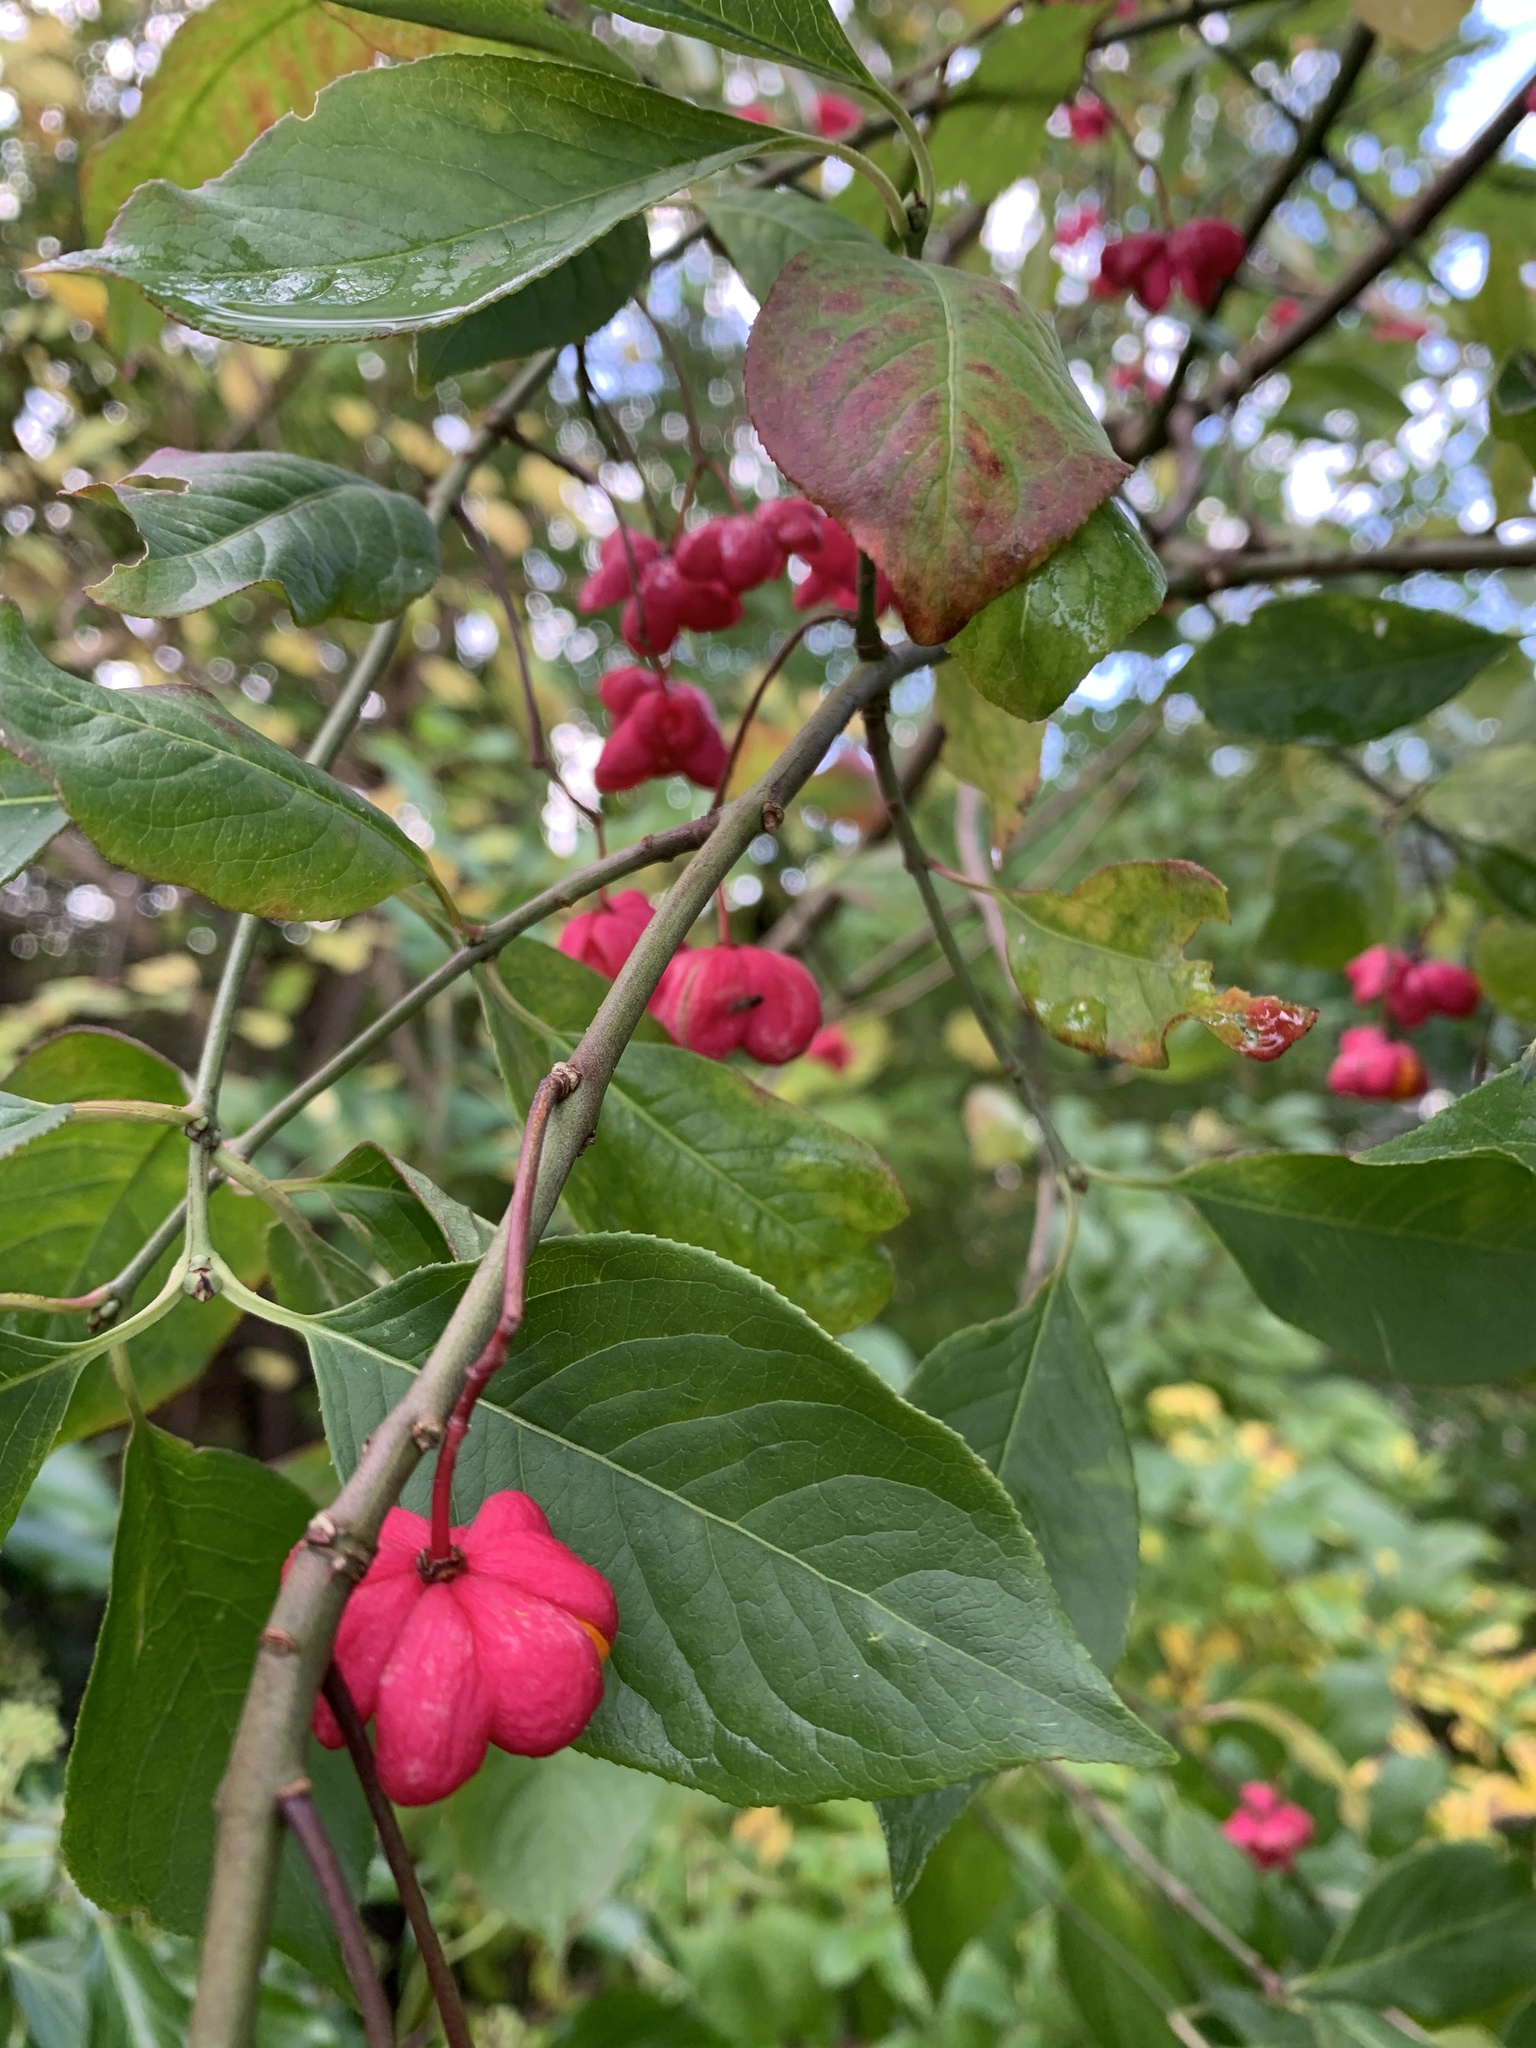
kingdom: Plantae
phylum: Tracheophyta
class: Magnoliopsida
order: Celastrales
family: Celastraceae
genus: Euonymus
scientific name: Euonymus europaeus
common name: Spindle
